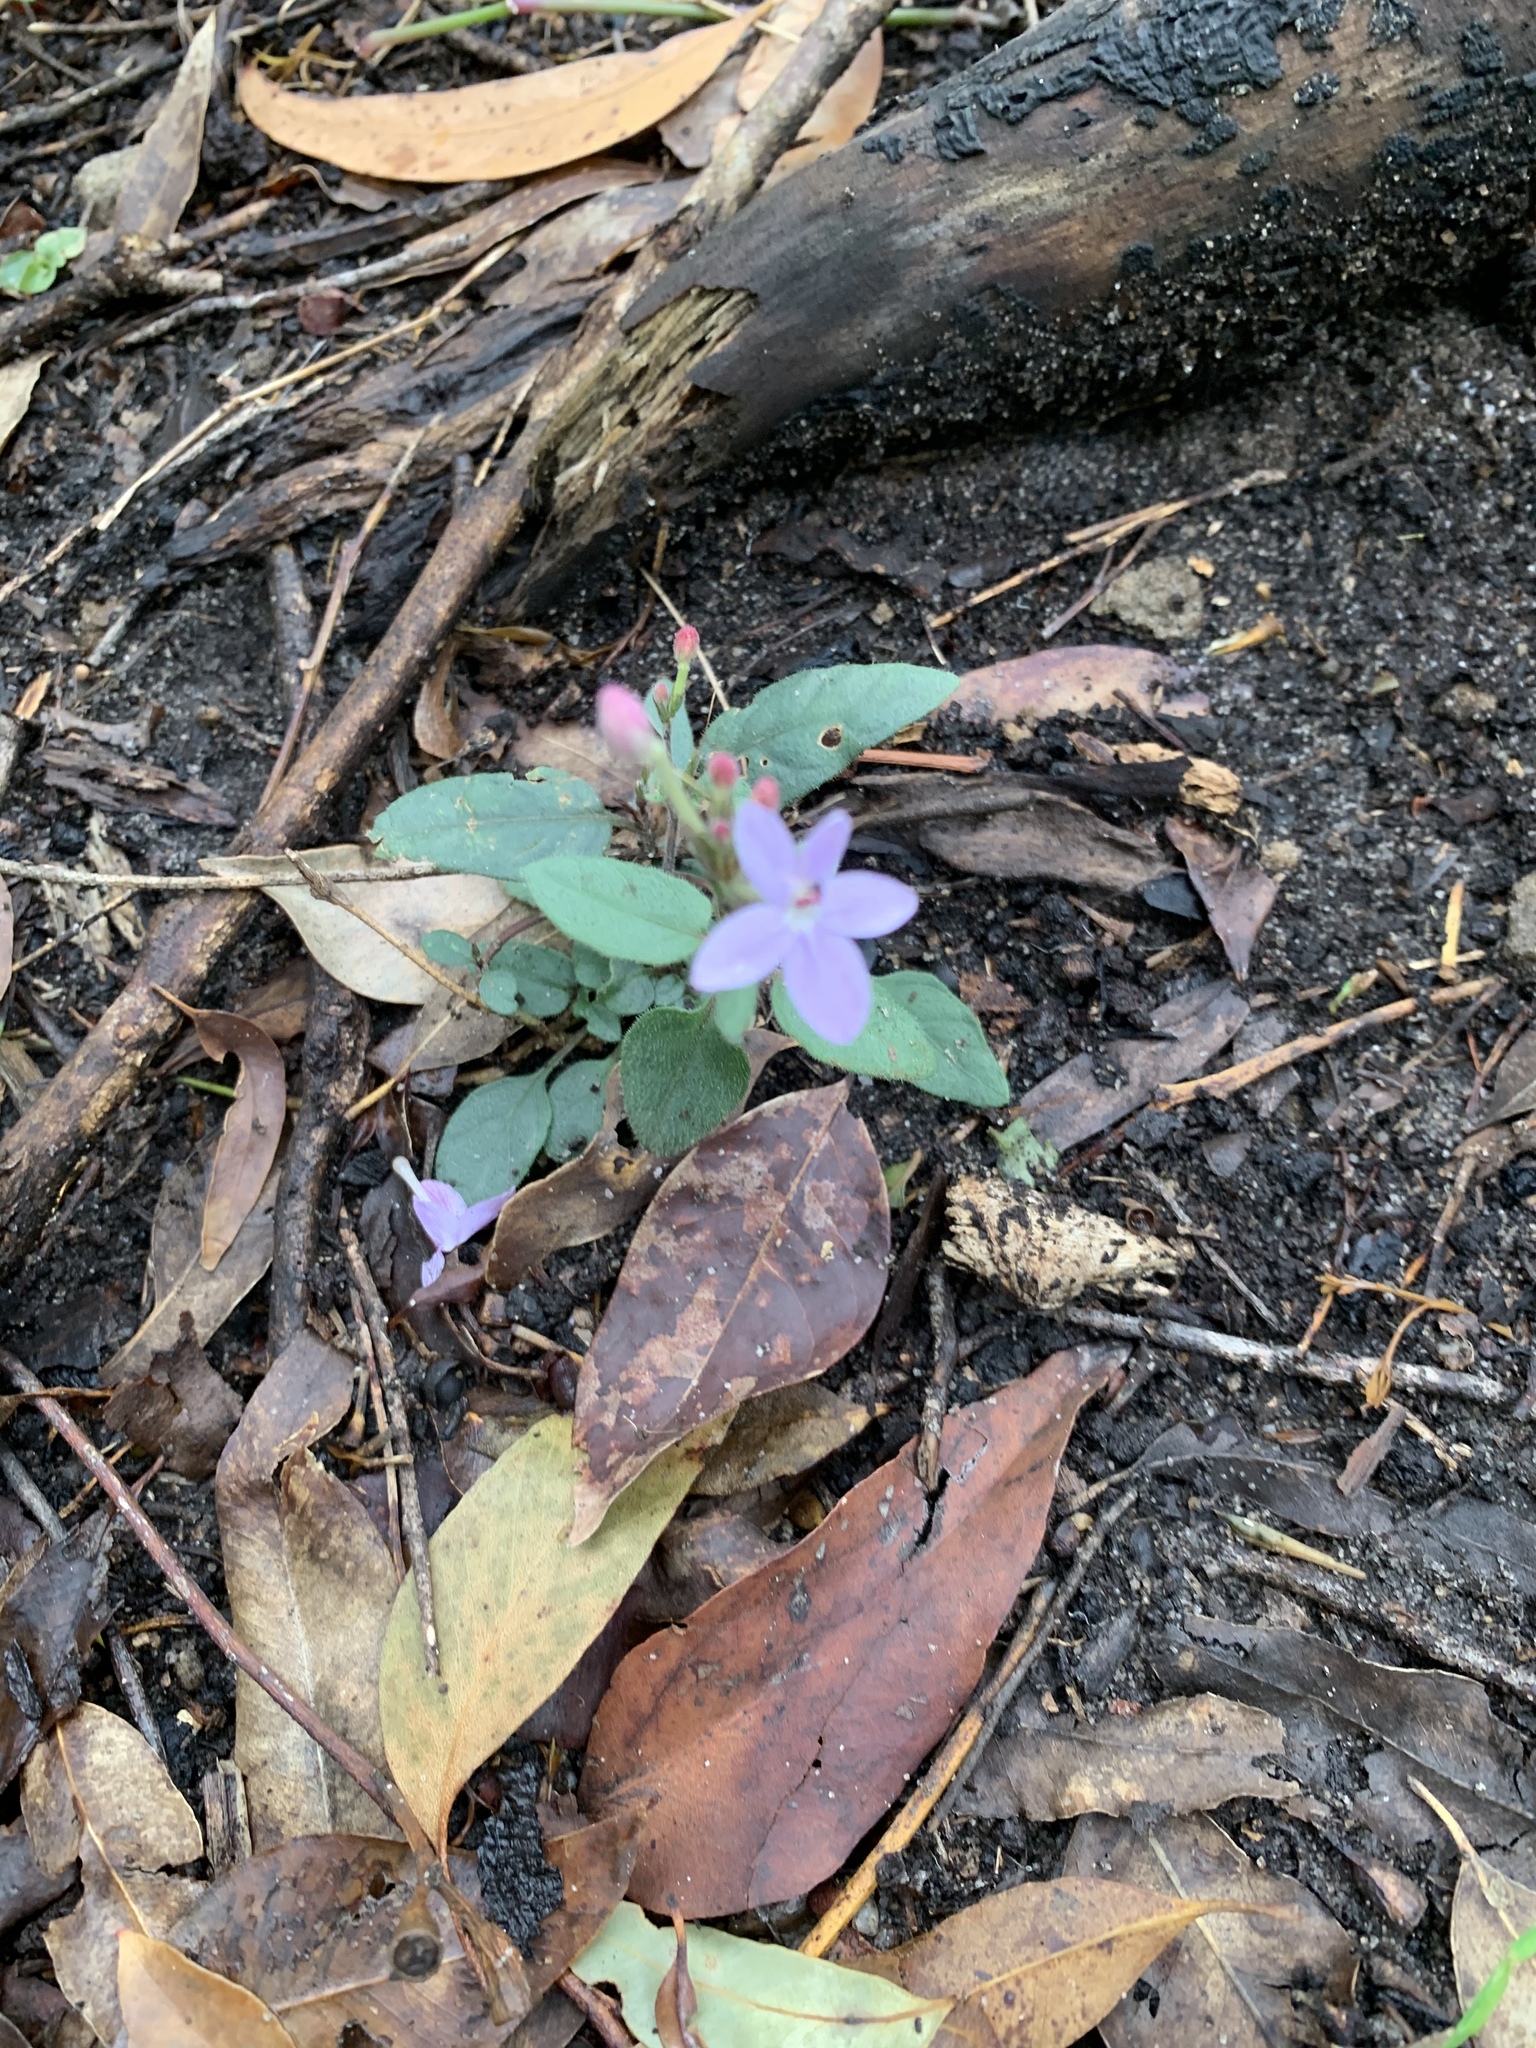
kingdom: Plantae
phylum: Tracheophyta
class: Magnoliopsida
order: Lamiales
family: Acanthaceae
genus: Pseuderanthemum
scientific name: Pseuderanthemum variabile
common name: Night and afternoon
